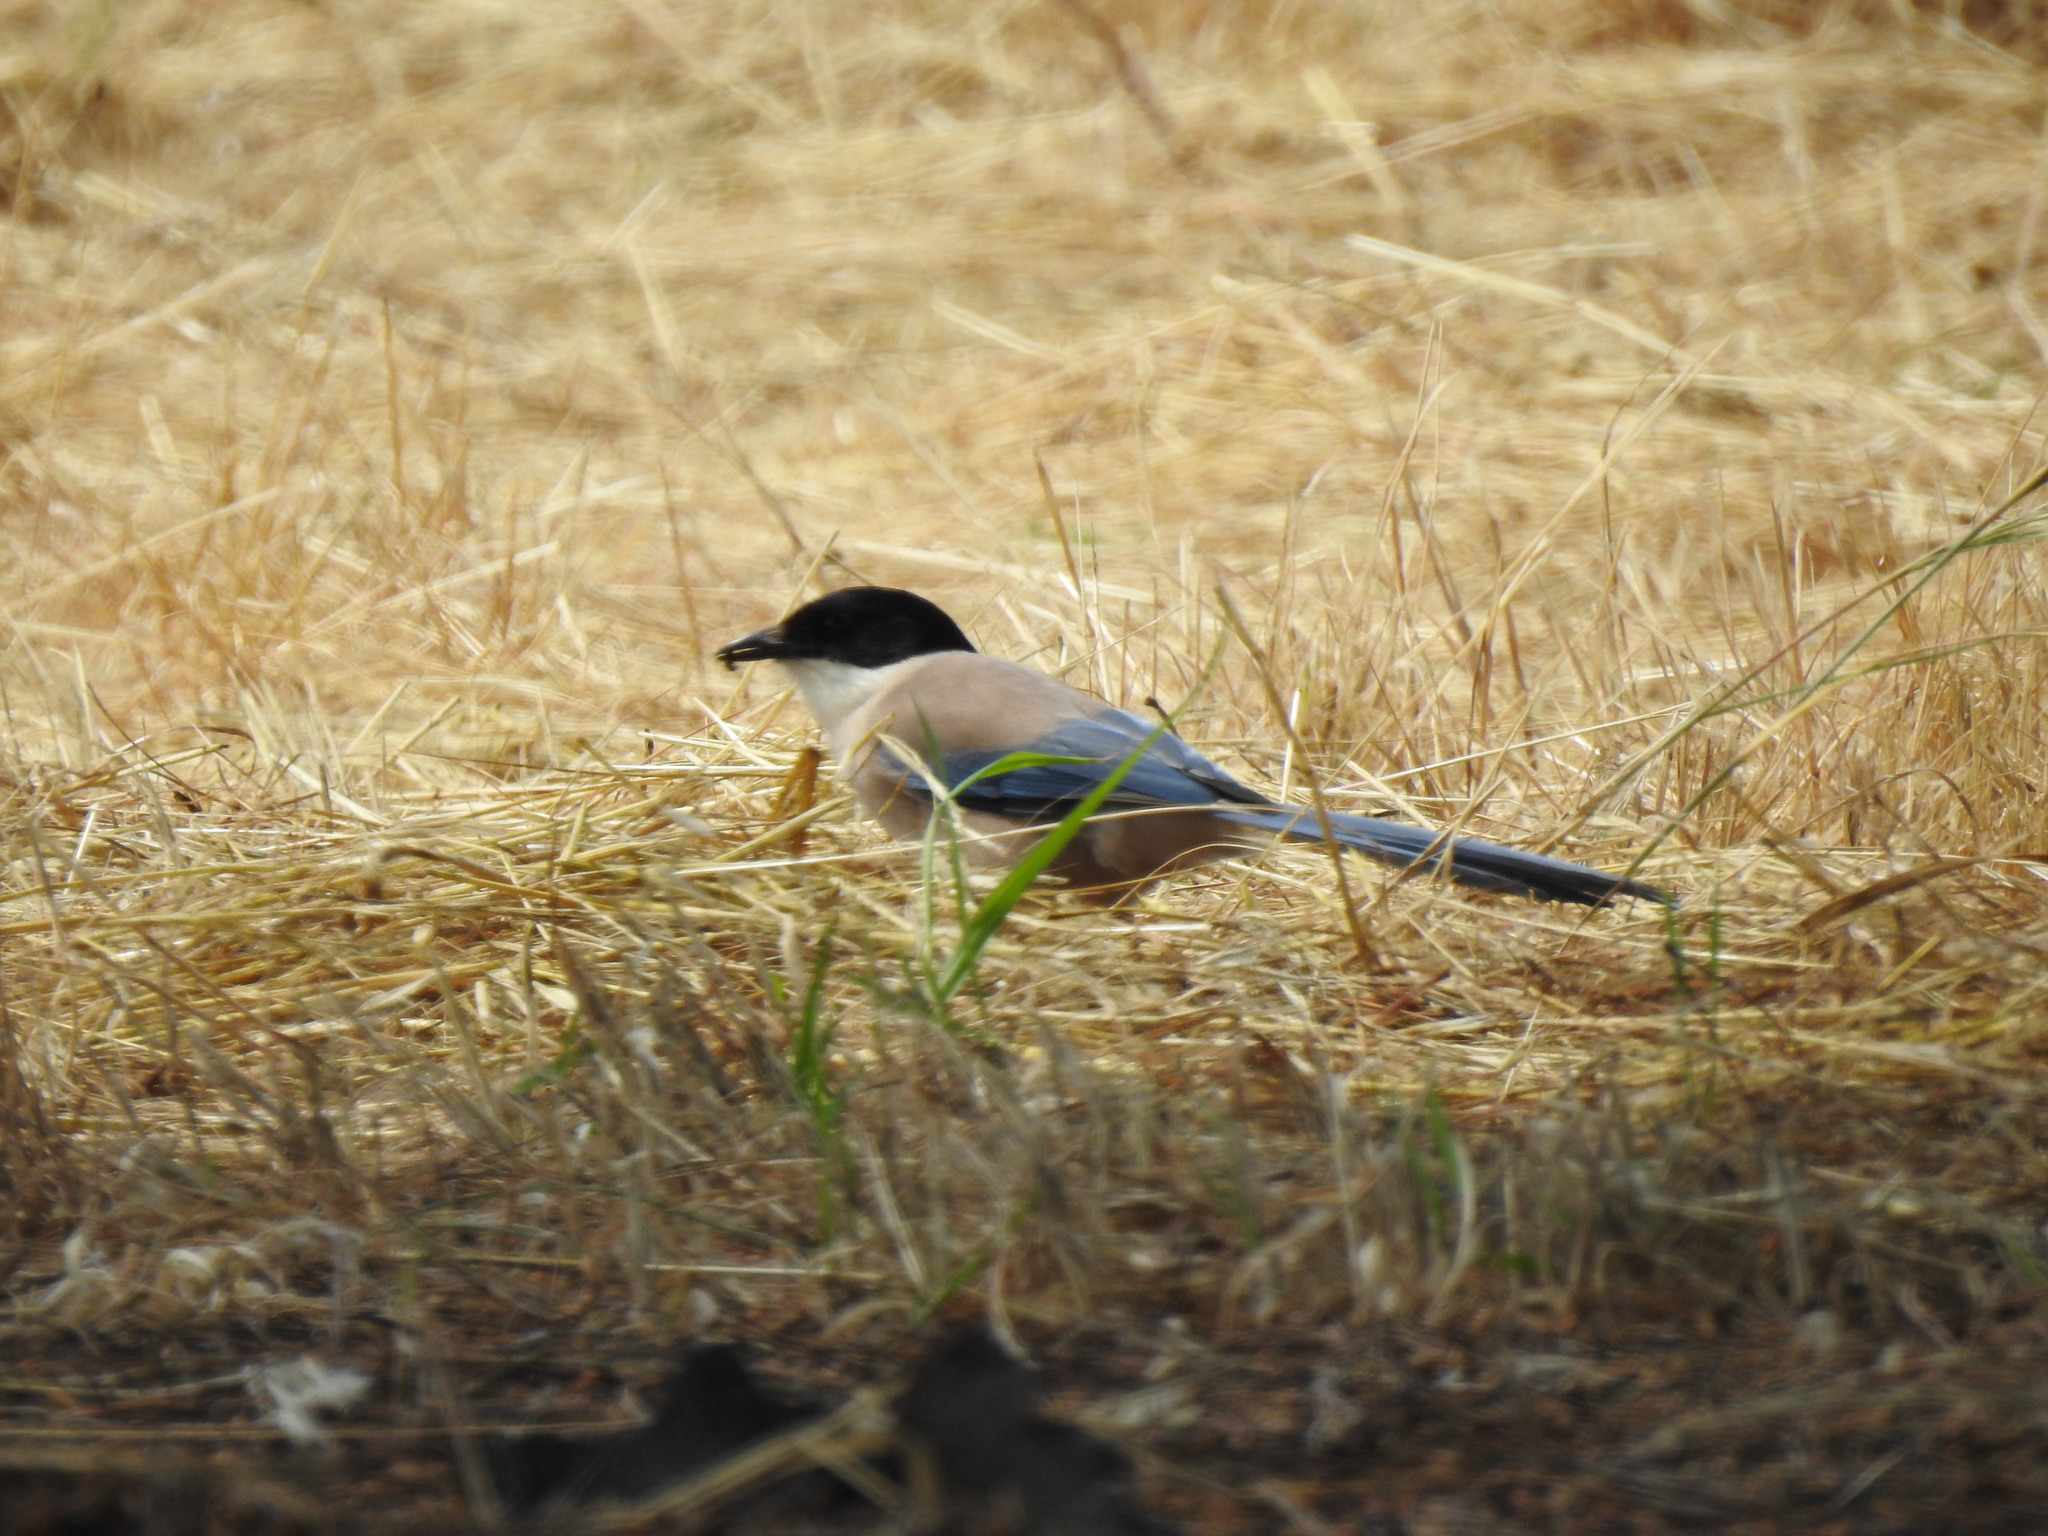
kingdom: Animalia
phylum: Chordata
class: Aves
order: Passeriformes
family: Corvidae
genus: Cyanopica
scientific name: Cyanopica cooki
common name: Iberian magpie
